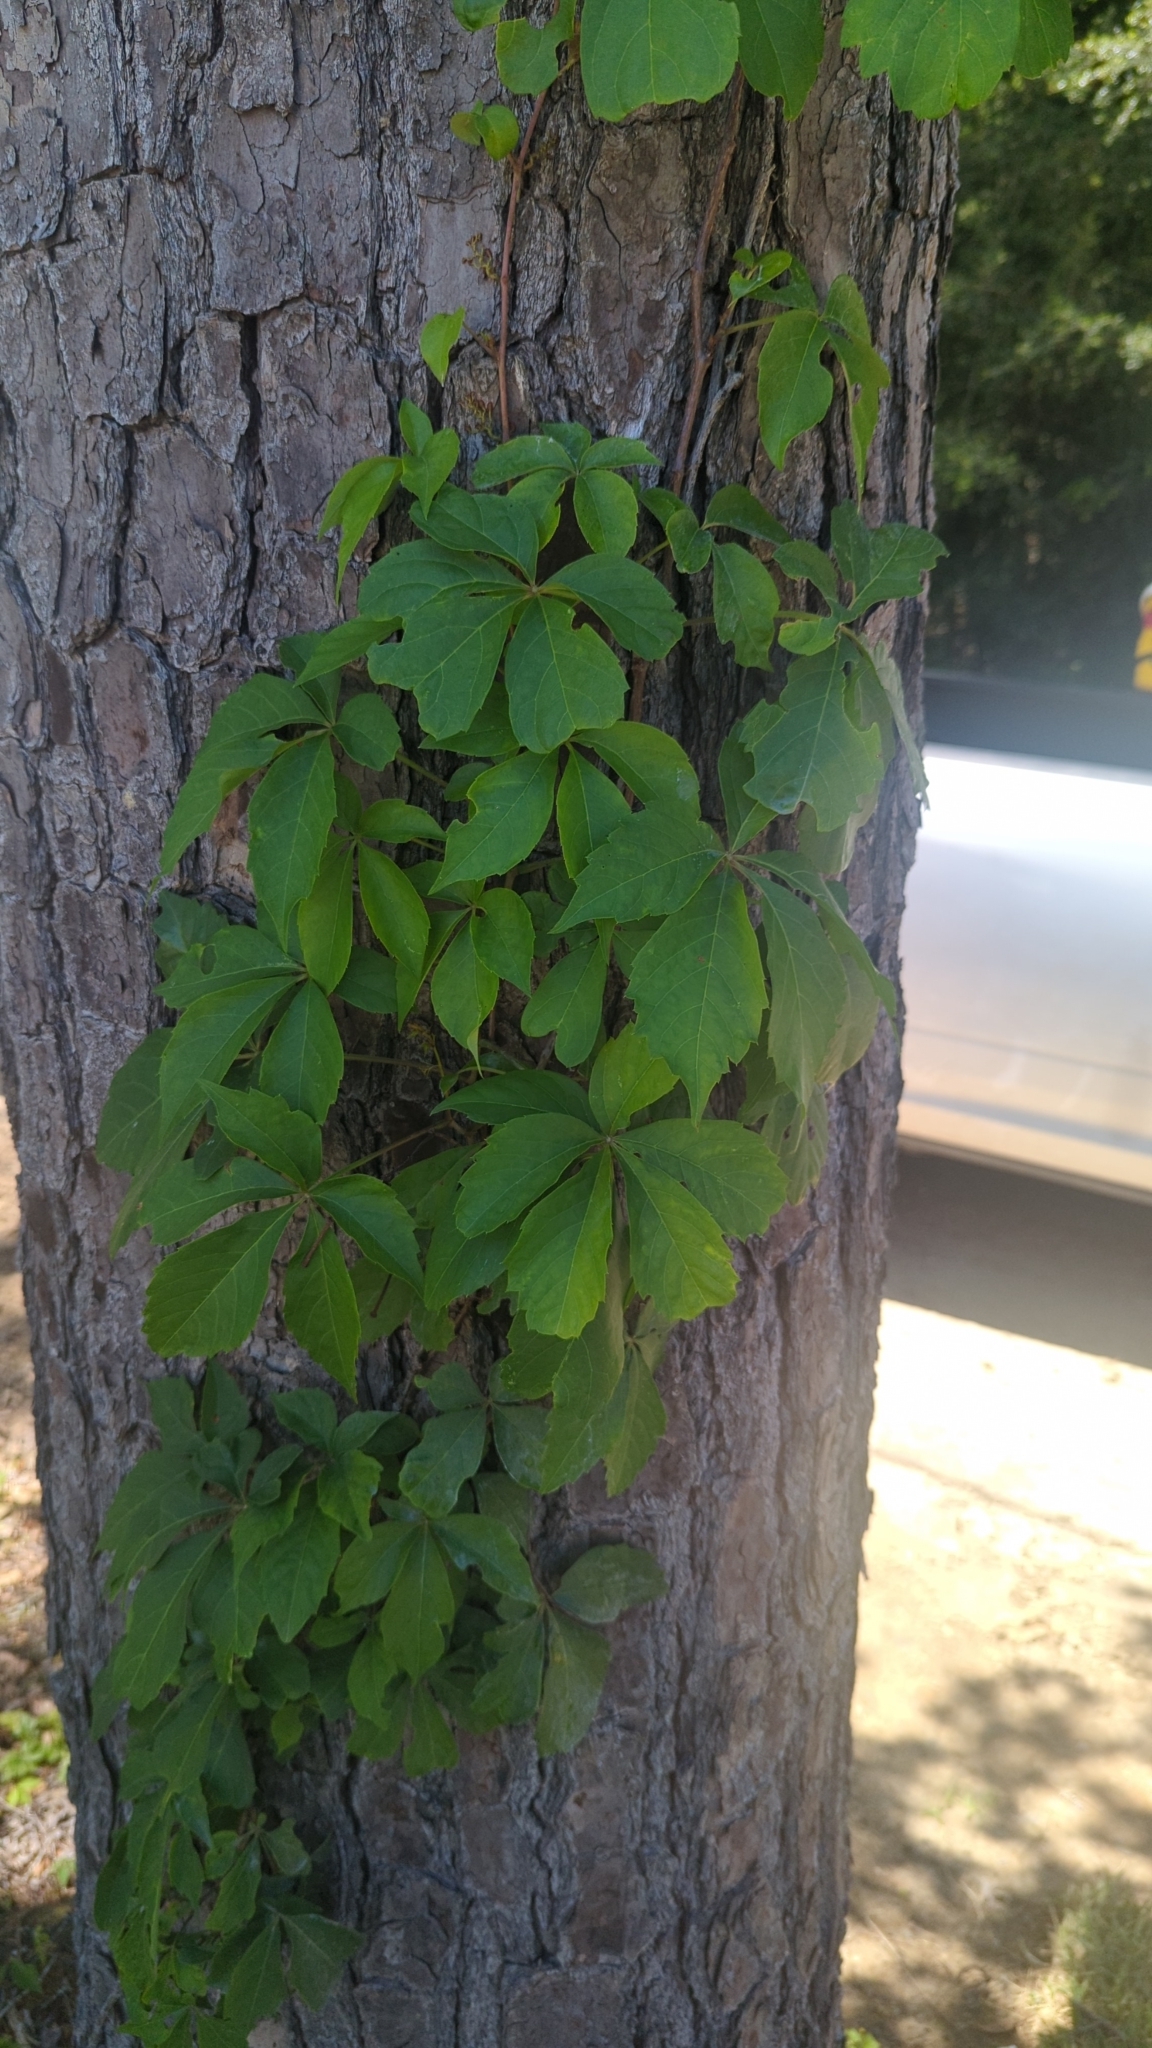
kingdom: Plantae
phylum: Tracheophyta
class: Magnoliopsida
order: Vitales
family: Vitaceae
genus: Parthenocissus
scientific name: Parthenocissus quinquefolia
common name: Virginia-creeper
